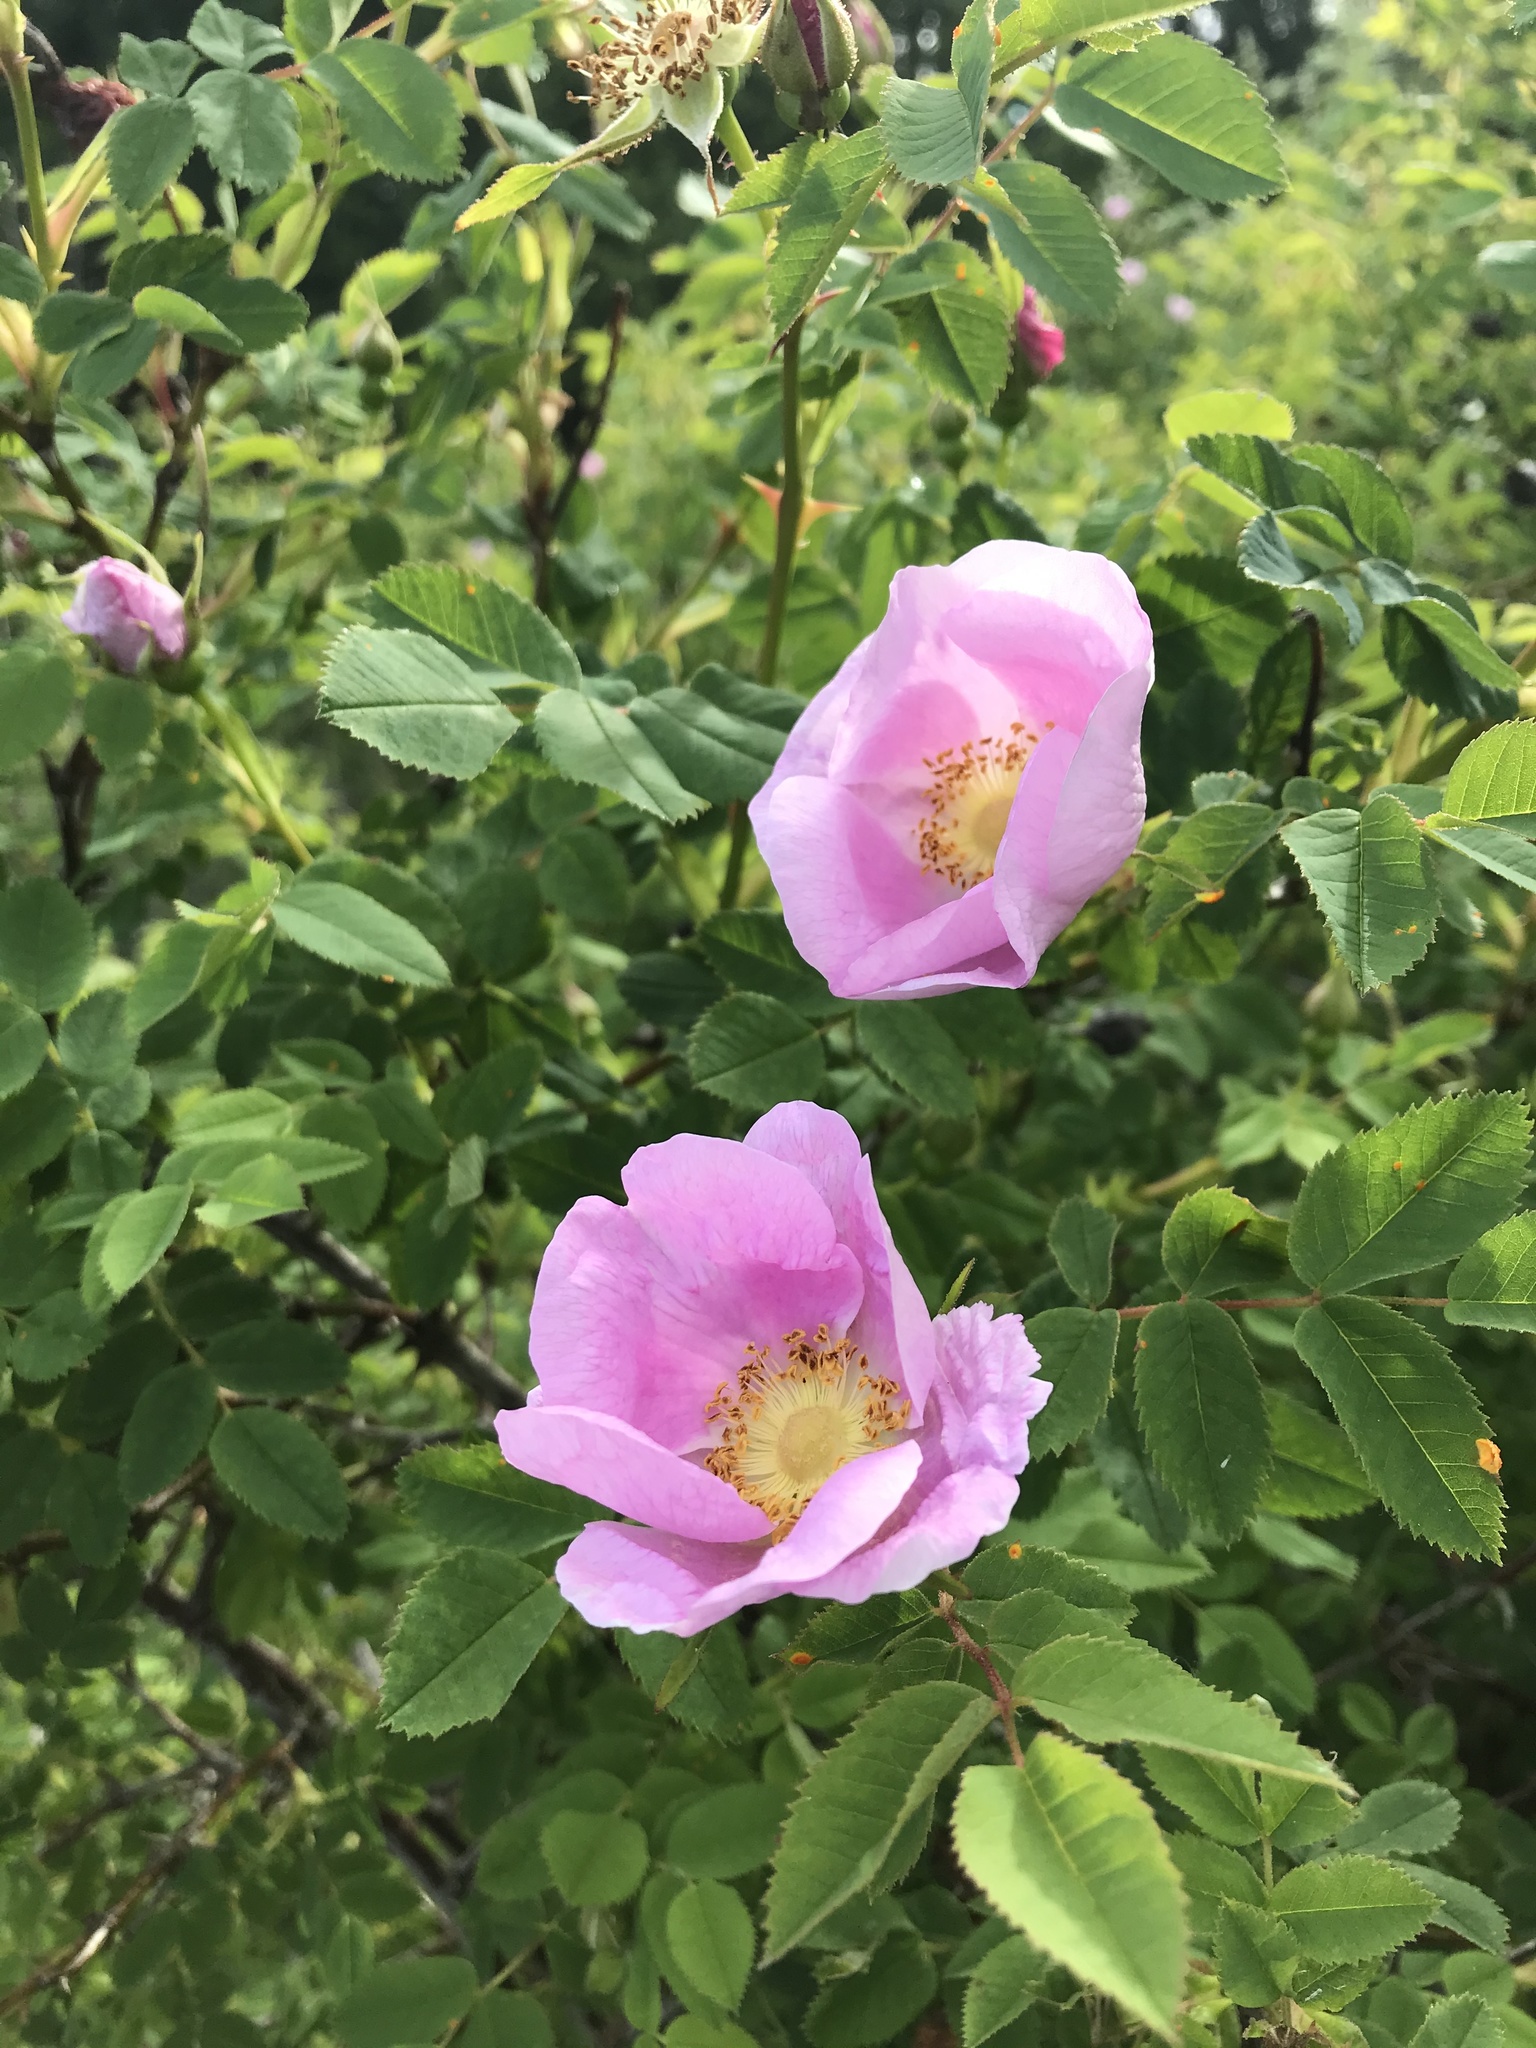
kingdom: Plantae
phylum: Tracheophyta
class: Magnoliopsida
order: Rosales
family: Rosaceae
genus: Rosa
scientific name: Rosa nutkana
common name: Nootka rose
